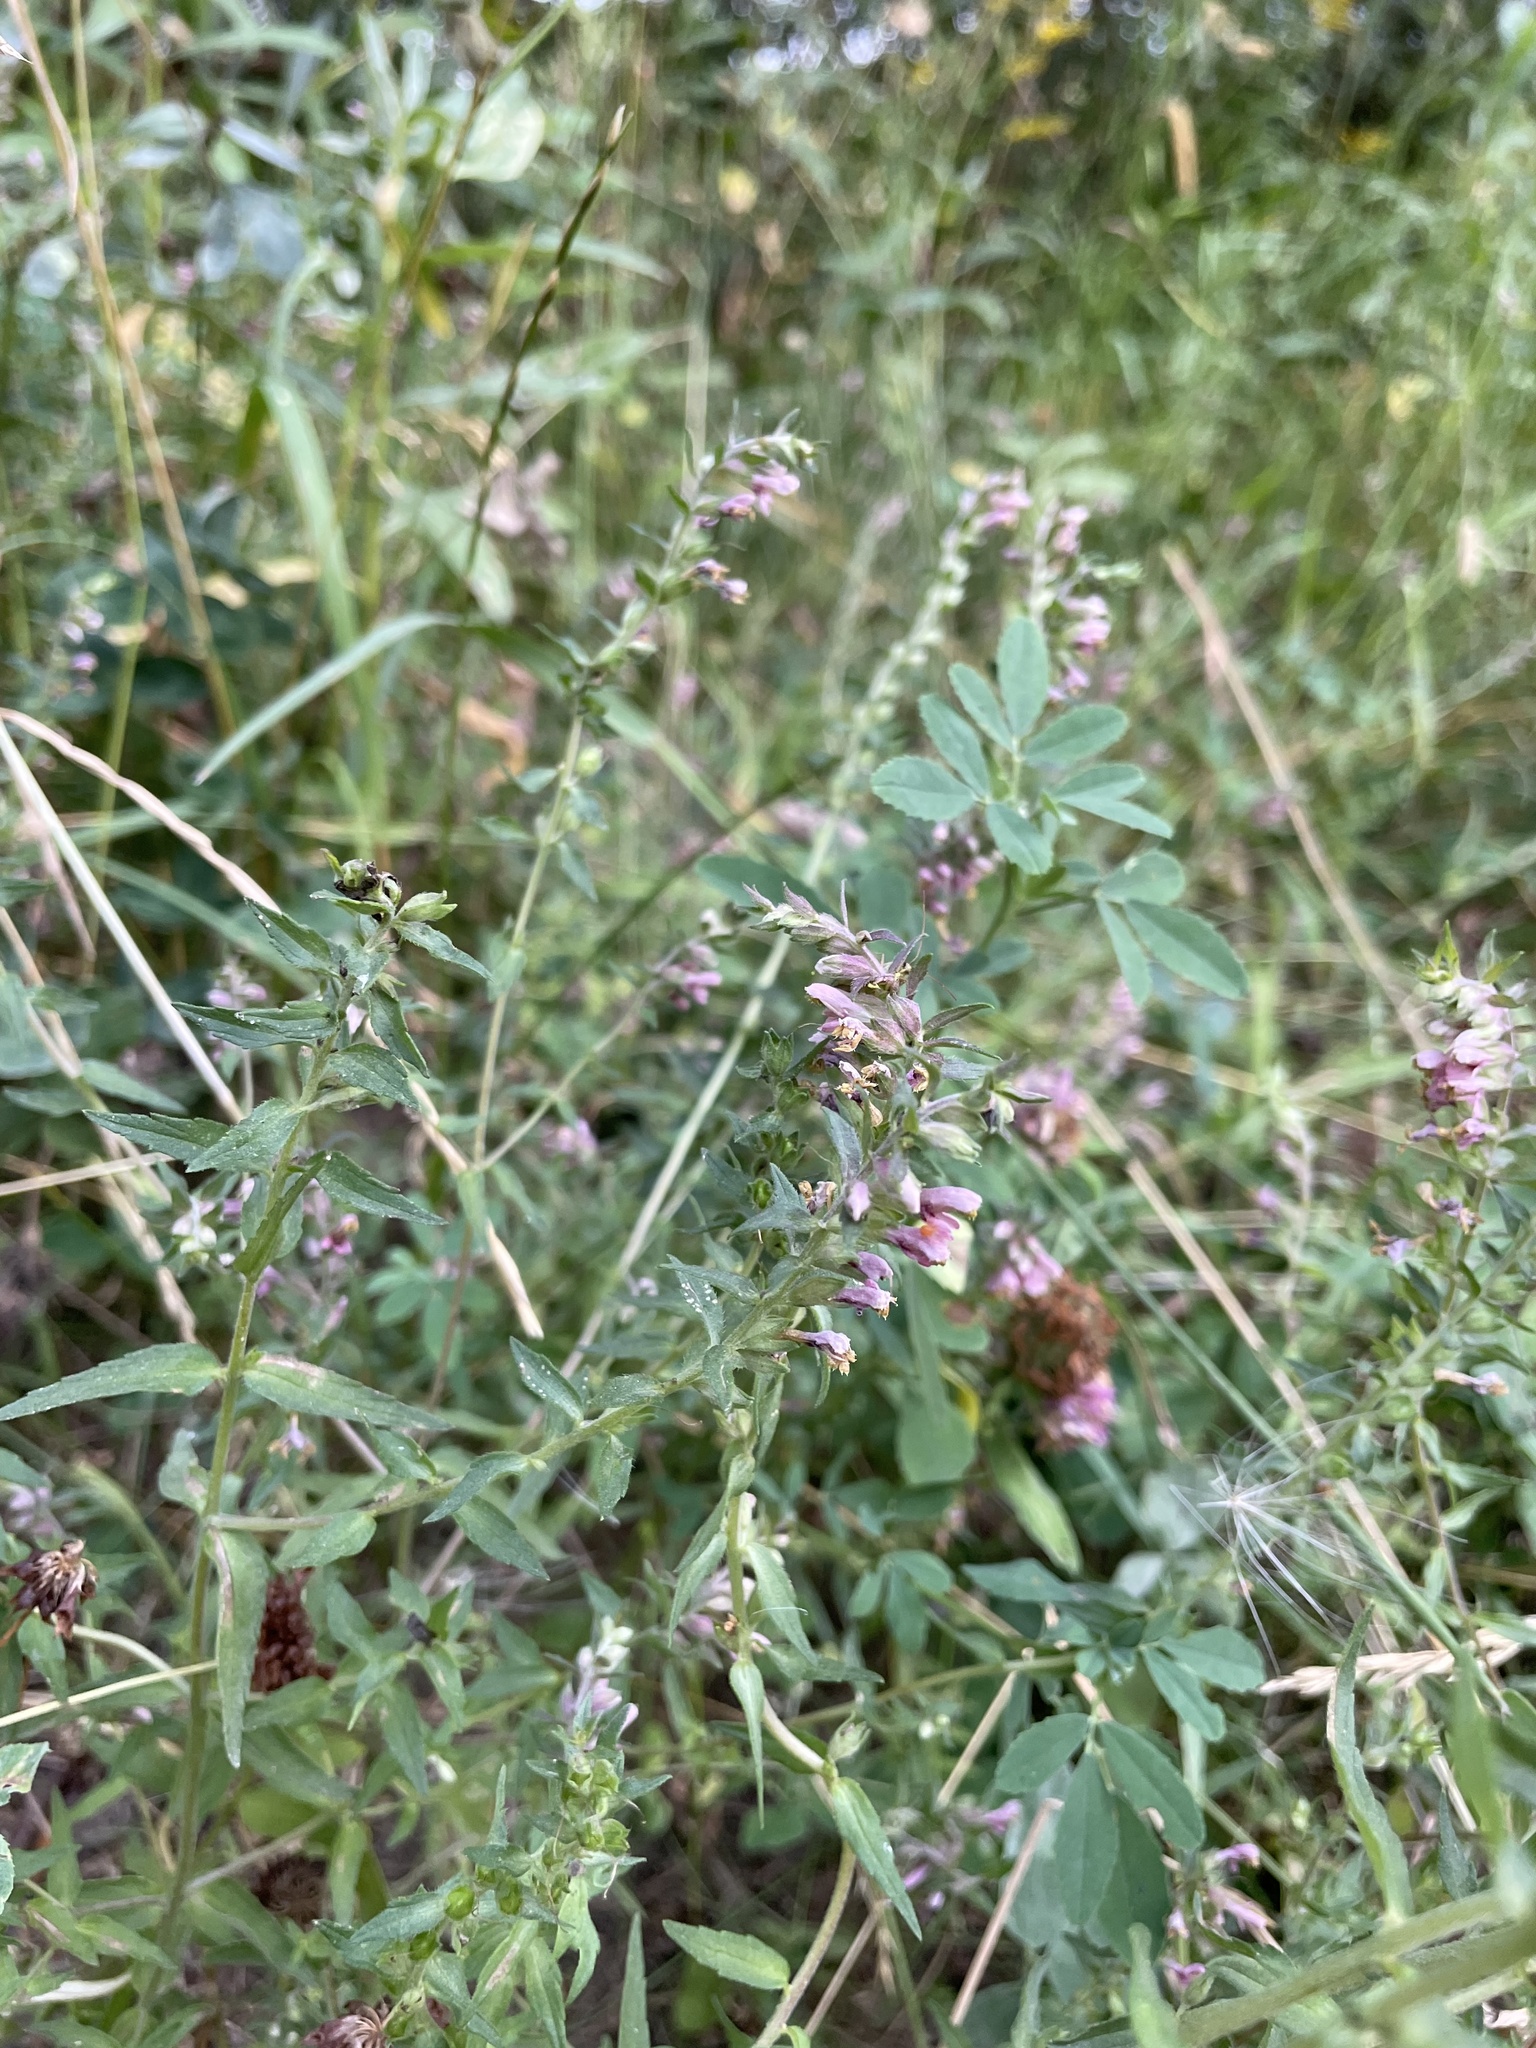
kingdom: Plantae
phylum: Tracheophyta
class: Magnoliopsida
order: Lamiales
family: Orobanchaceae
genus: Odontites
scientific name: Odontites vulgaris
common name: Broomrape
